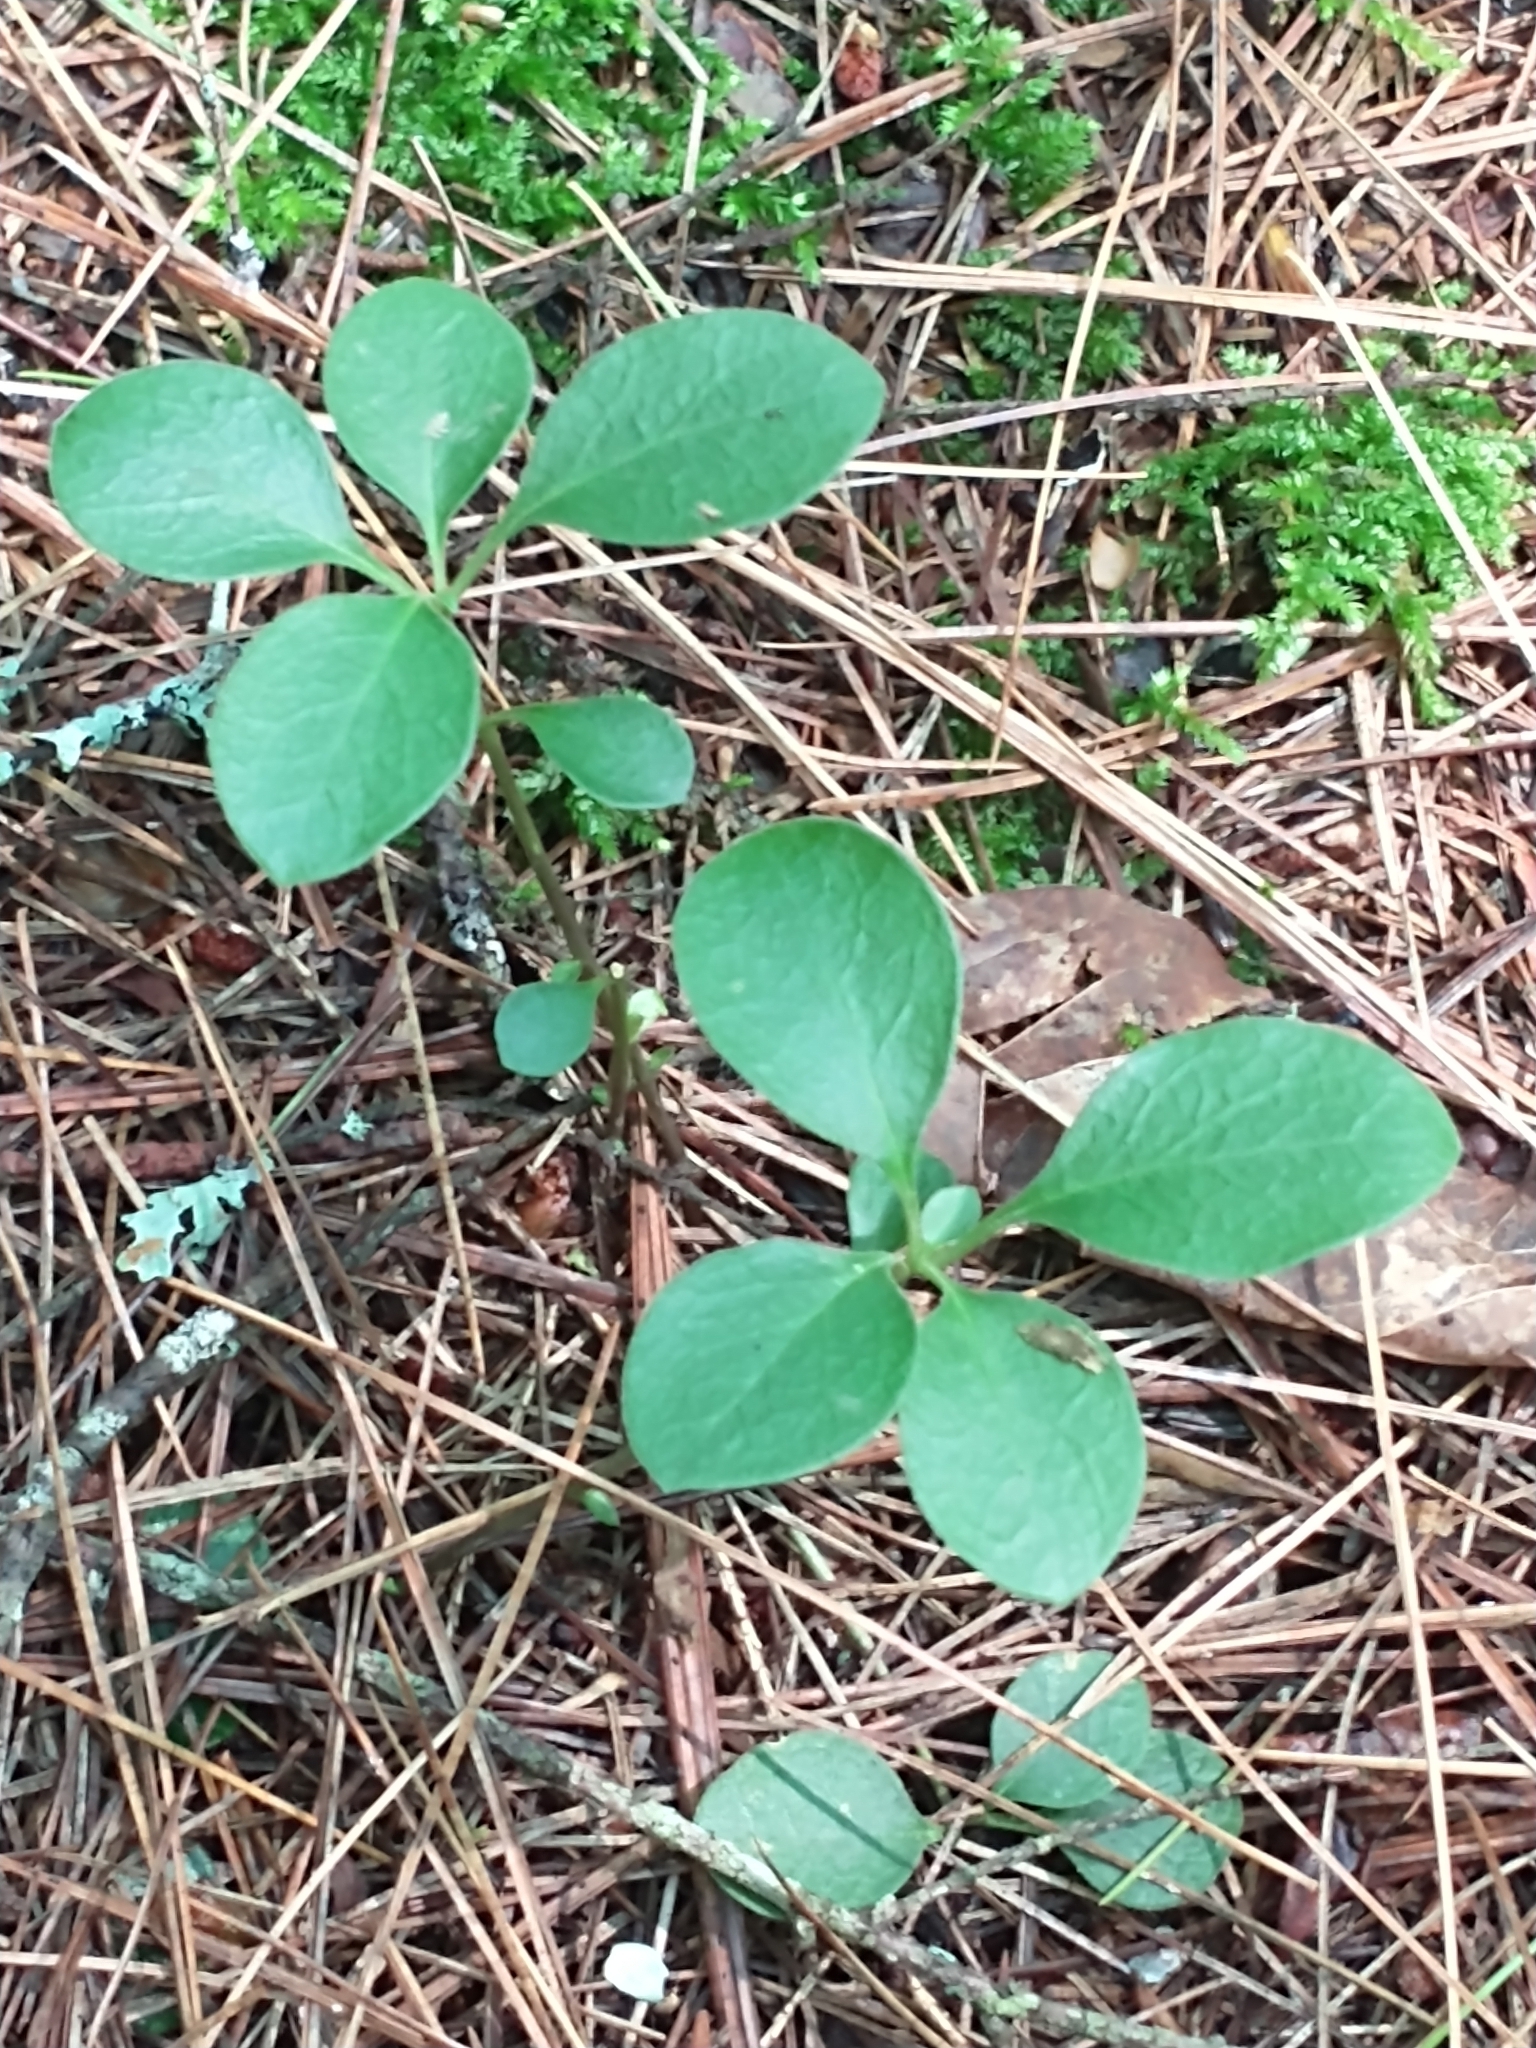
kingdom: Plantae
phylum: Tracheophyta
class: Magnoliopsida
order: Fabales
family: Polygalaceae
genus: Polygaloides
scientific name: Polygaloides paucifolia
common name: Bird-on-the-wing
